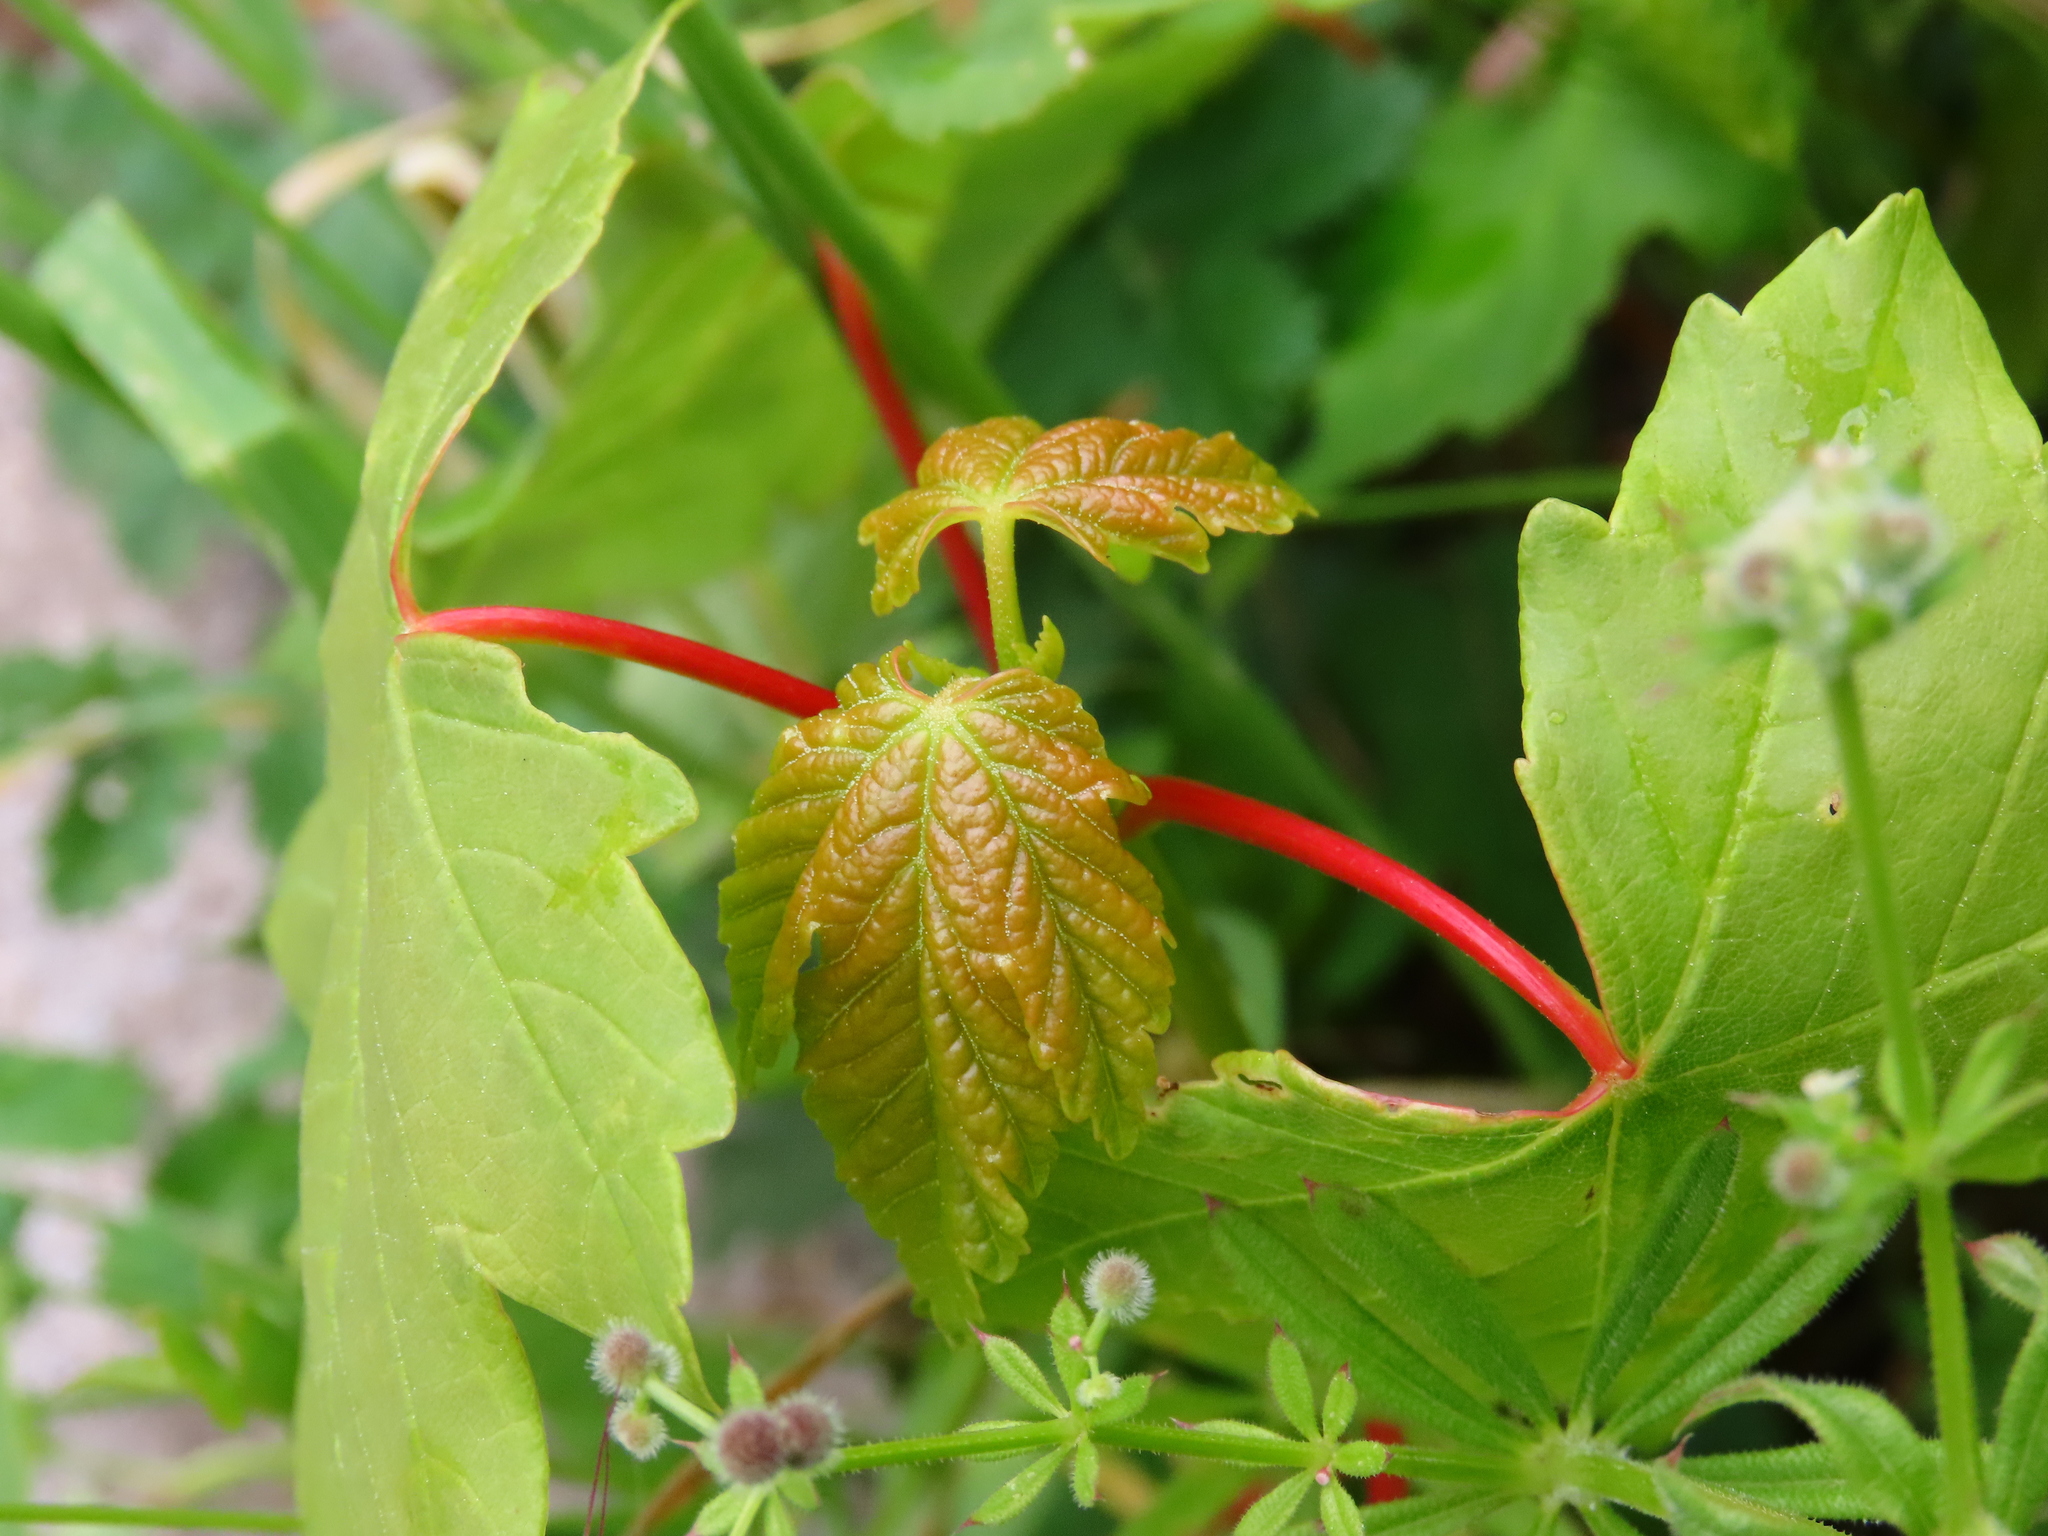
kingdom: Plantae
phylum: Tracheophyta
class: Magnoliopsida
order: Sapindales
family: Sapindaceae
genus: Acer
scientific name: Acer pseudoplatanus
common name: Sycamore
